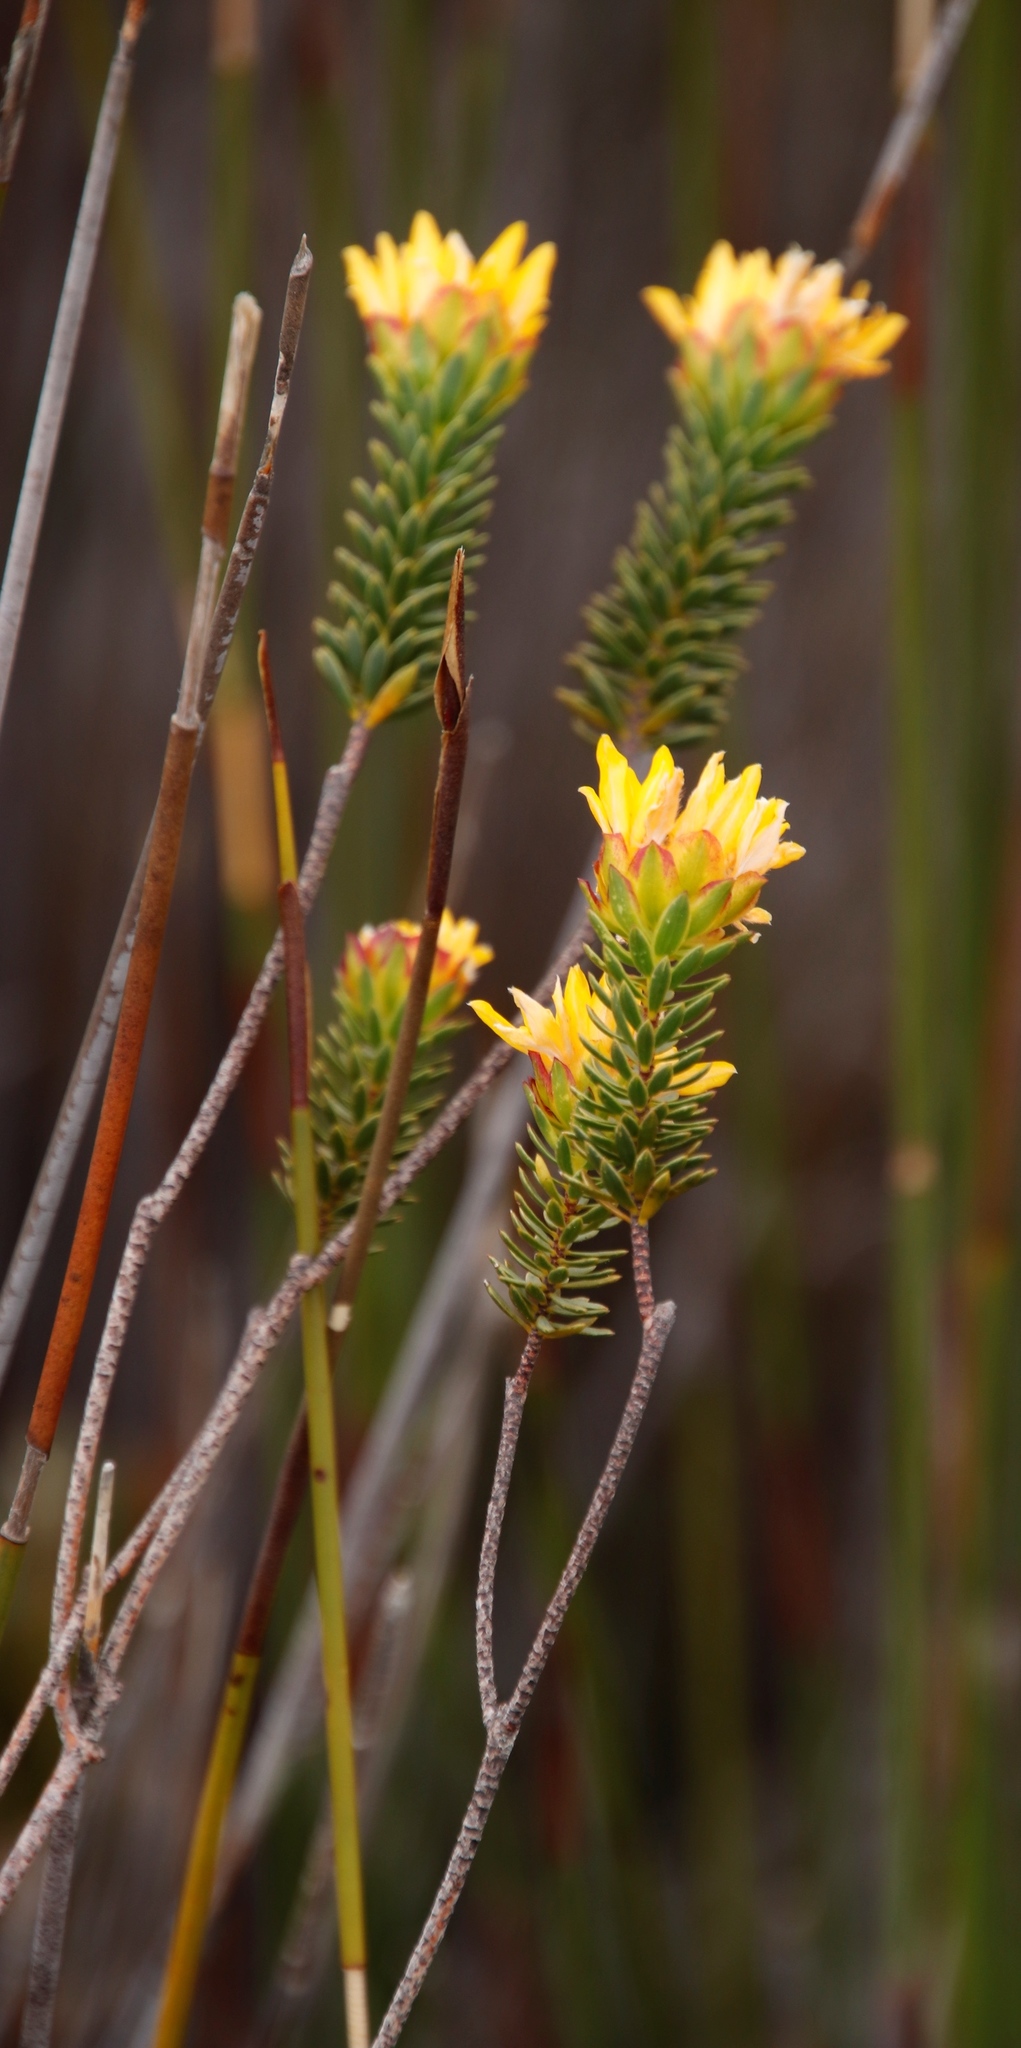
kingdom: Plantae
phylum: Tracheophyta
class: Magnoliopsida
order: Malvales
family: Thymelaeaceae
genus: Lachnaea
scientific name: Lachnaea aurea
